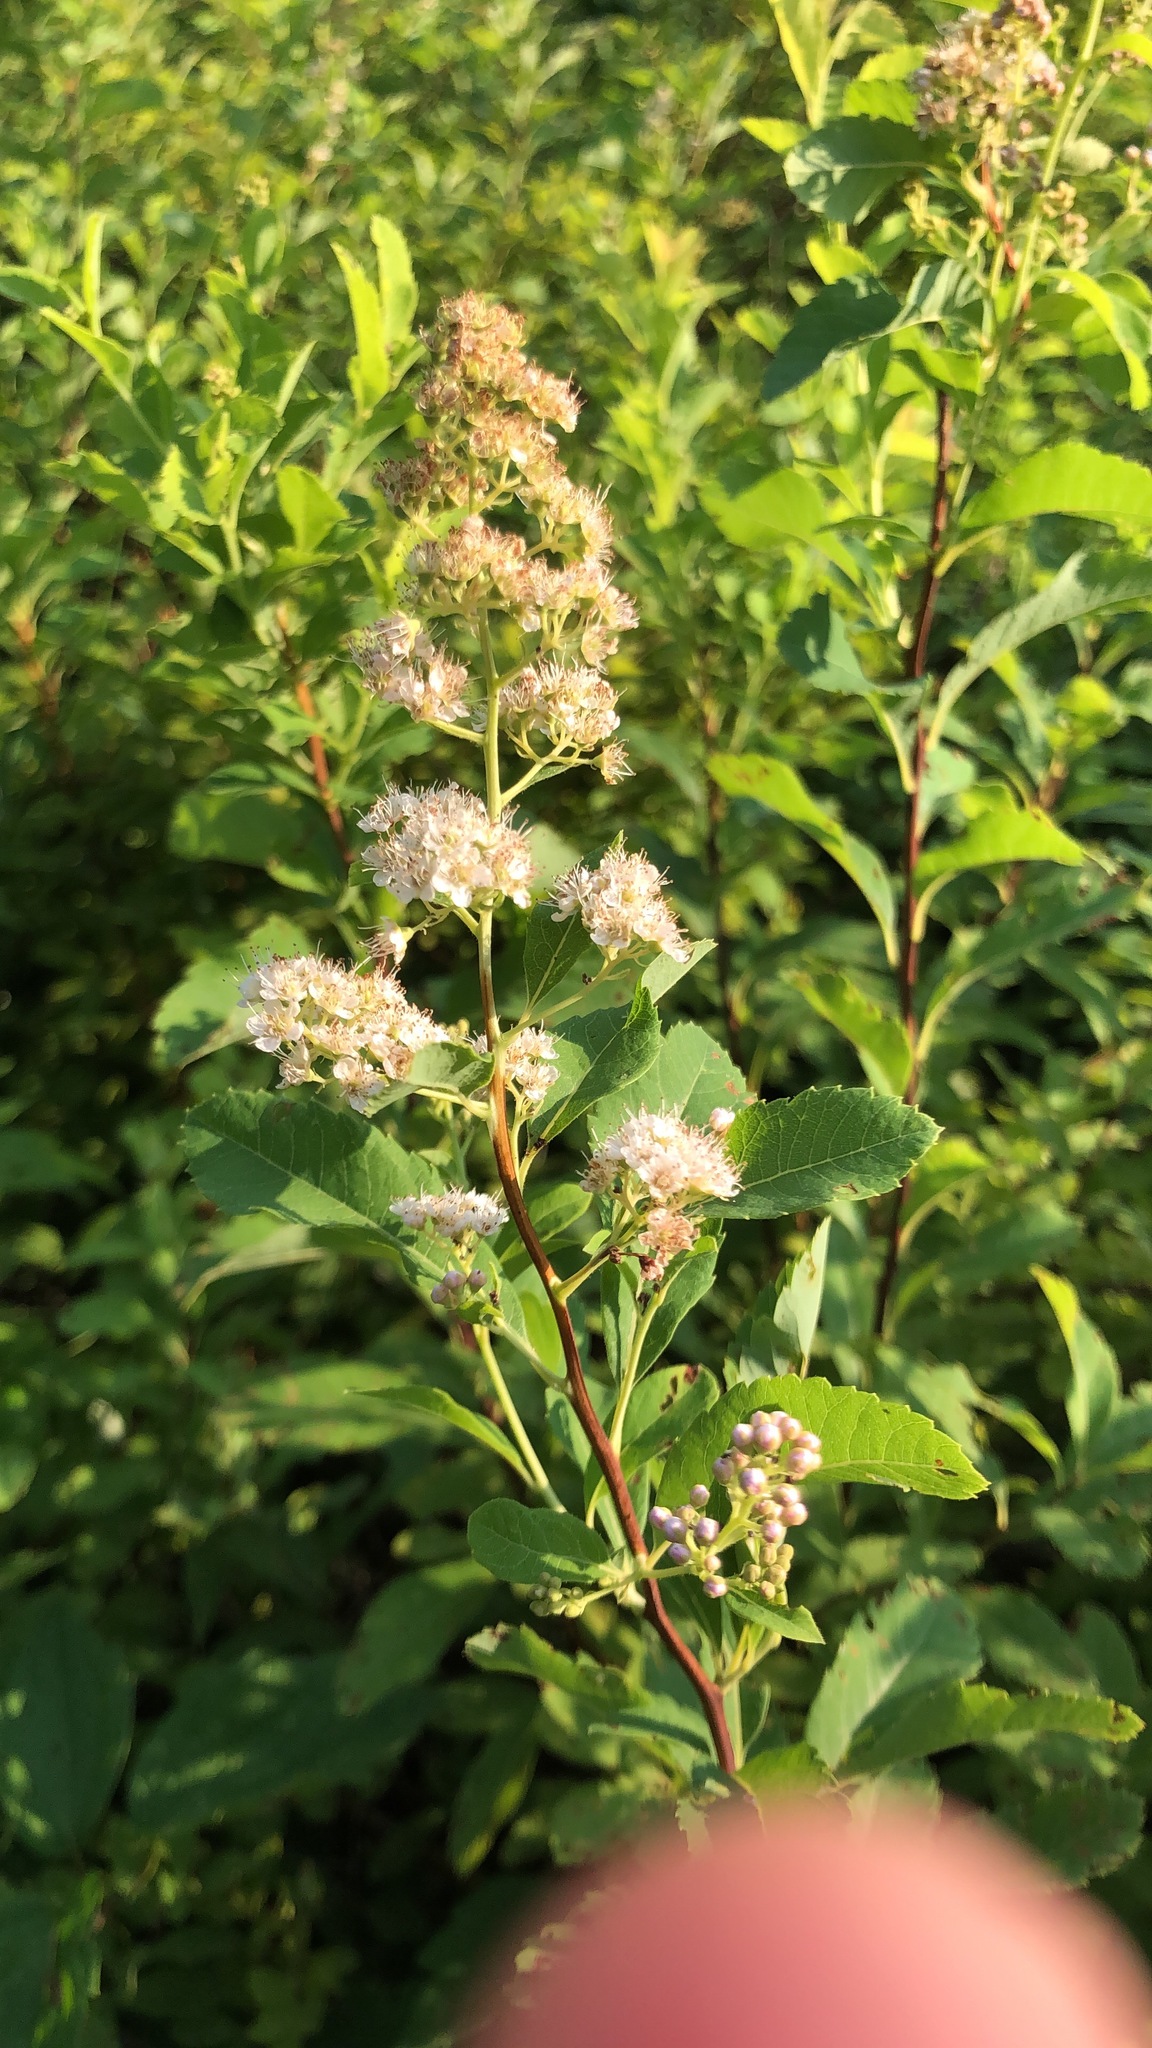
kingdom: Plantae
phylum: Tracheophyta
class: Magnoliopsida
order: Rosales
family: Rosaceae
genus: Spiraea
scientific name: Spiraea alba
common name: Pale bridewort
